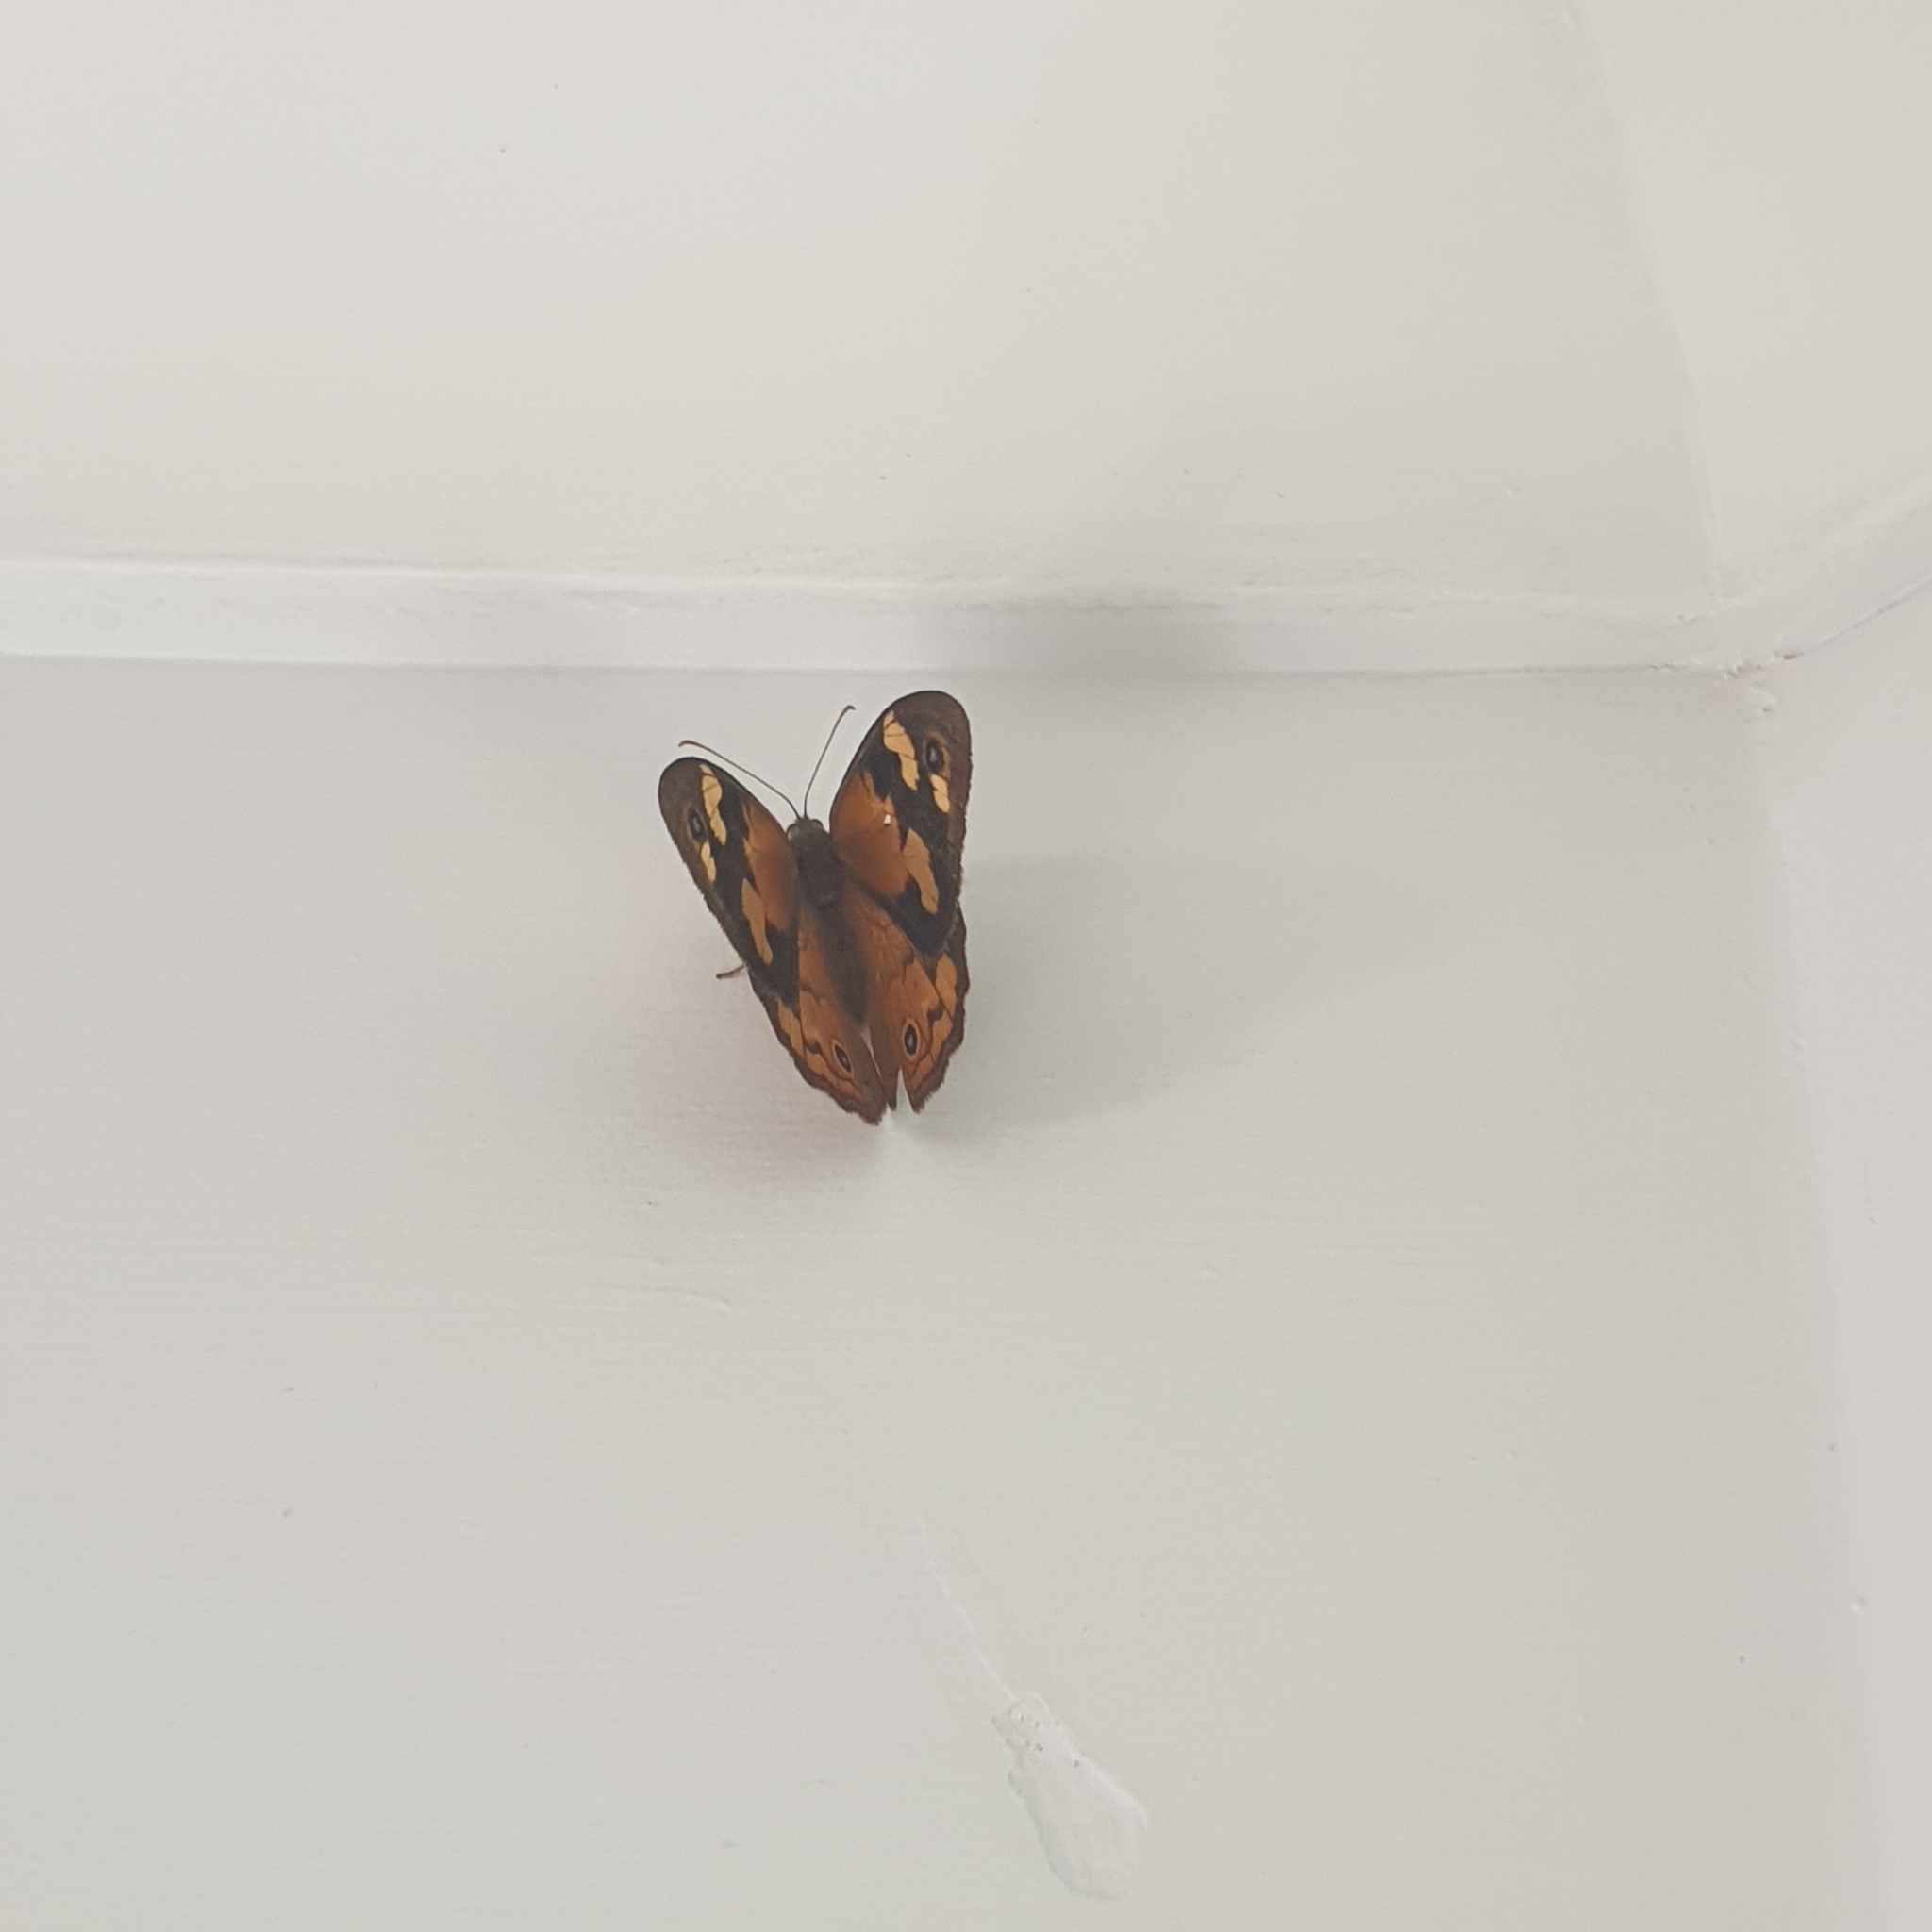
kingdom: Animalia
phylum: Arthropoda
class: Insecta
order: Lepidoptera
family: Nymphalidae
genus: Heteronympha
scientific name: Heteronympha merope
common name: Common brown
